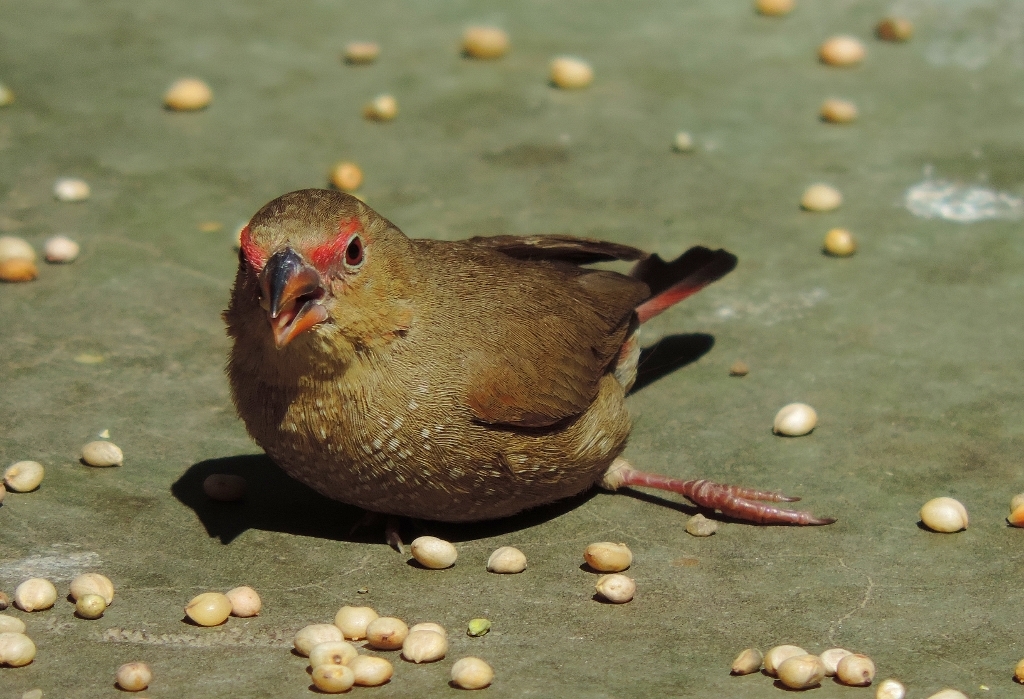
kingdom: Animalia
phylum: Chordata
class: Aves
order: Passeriformes
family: Estrildidae
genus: Lagonosticta
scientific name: Lagonosticta senegala
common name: Red-billed firefinch
